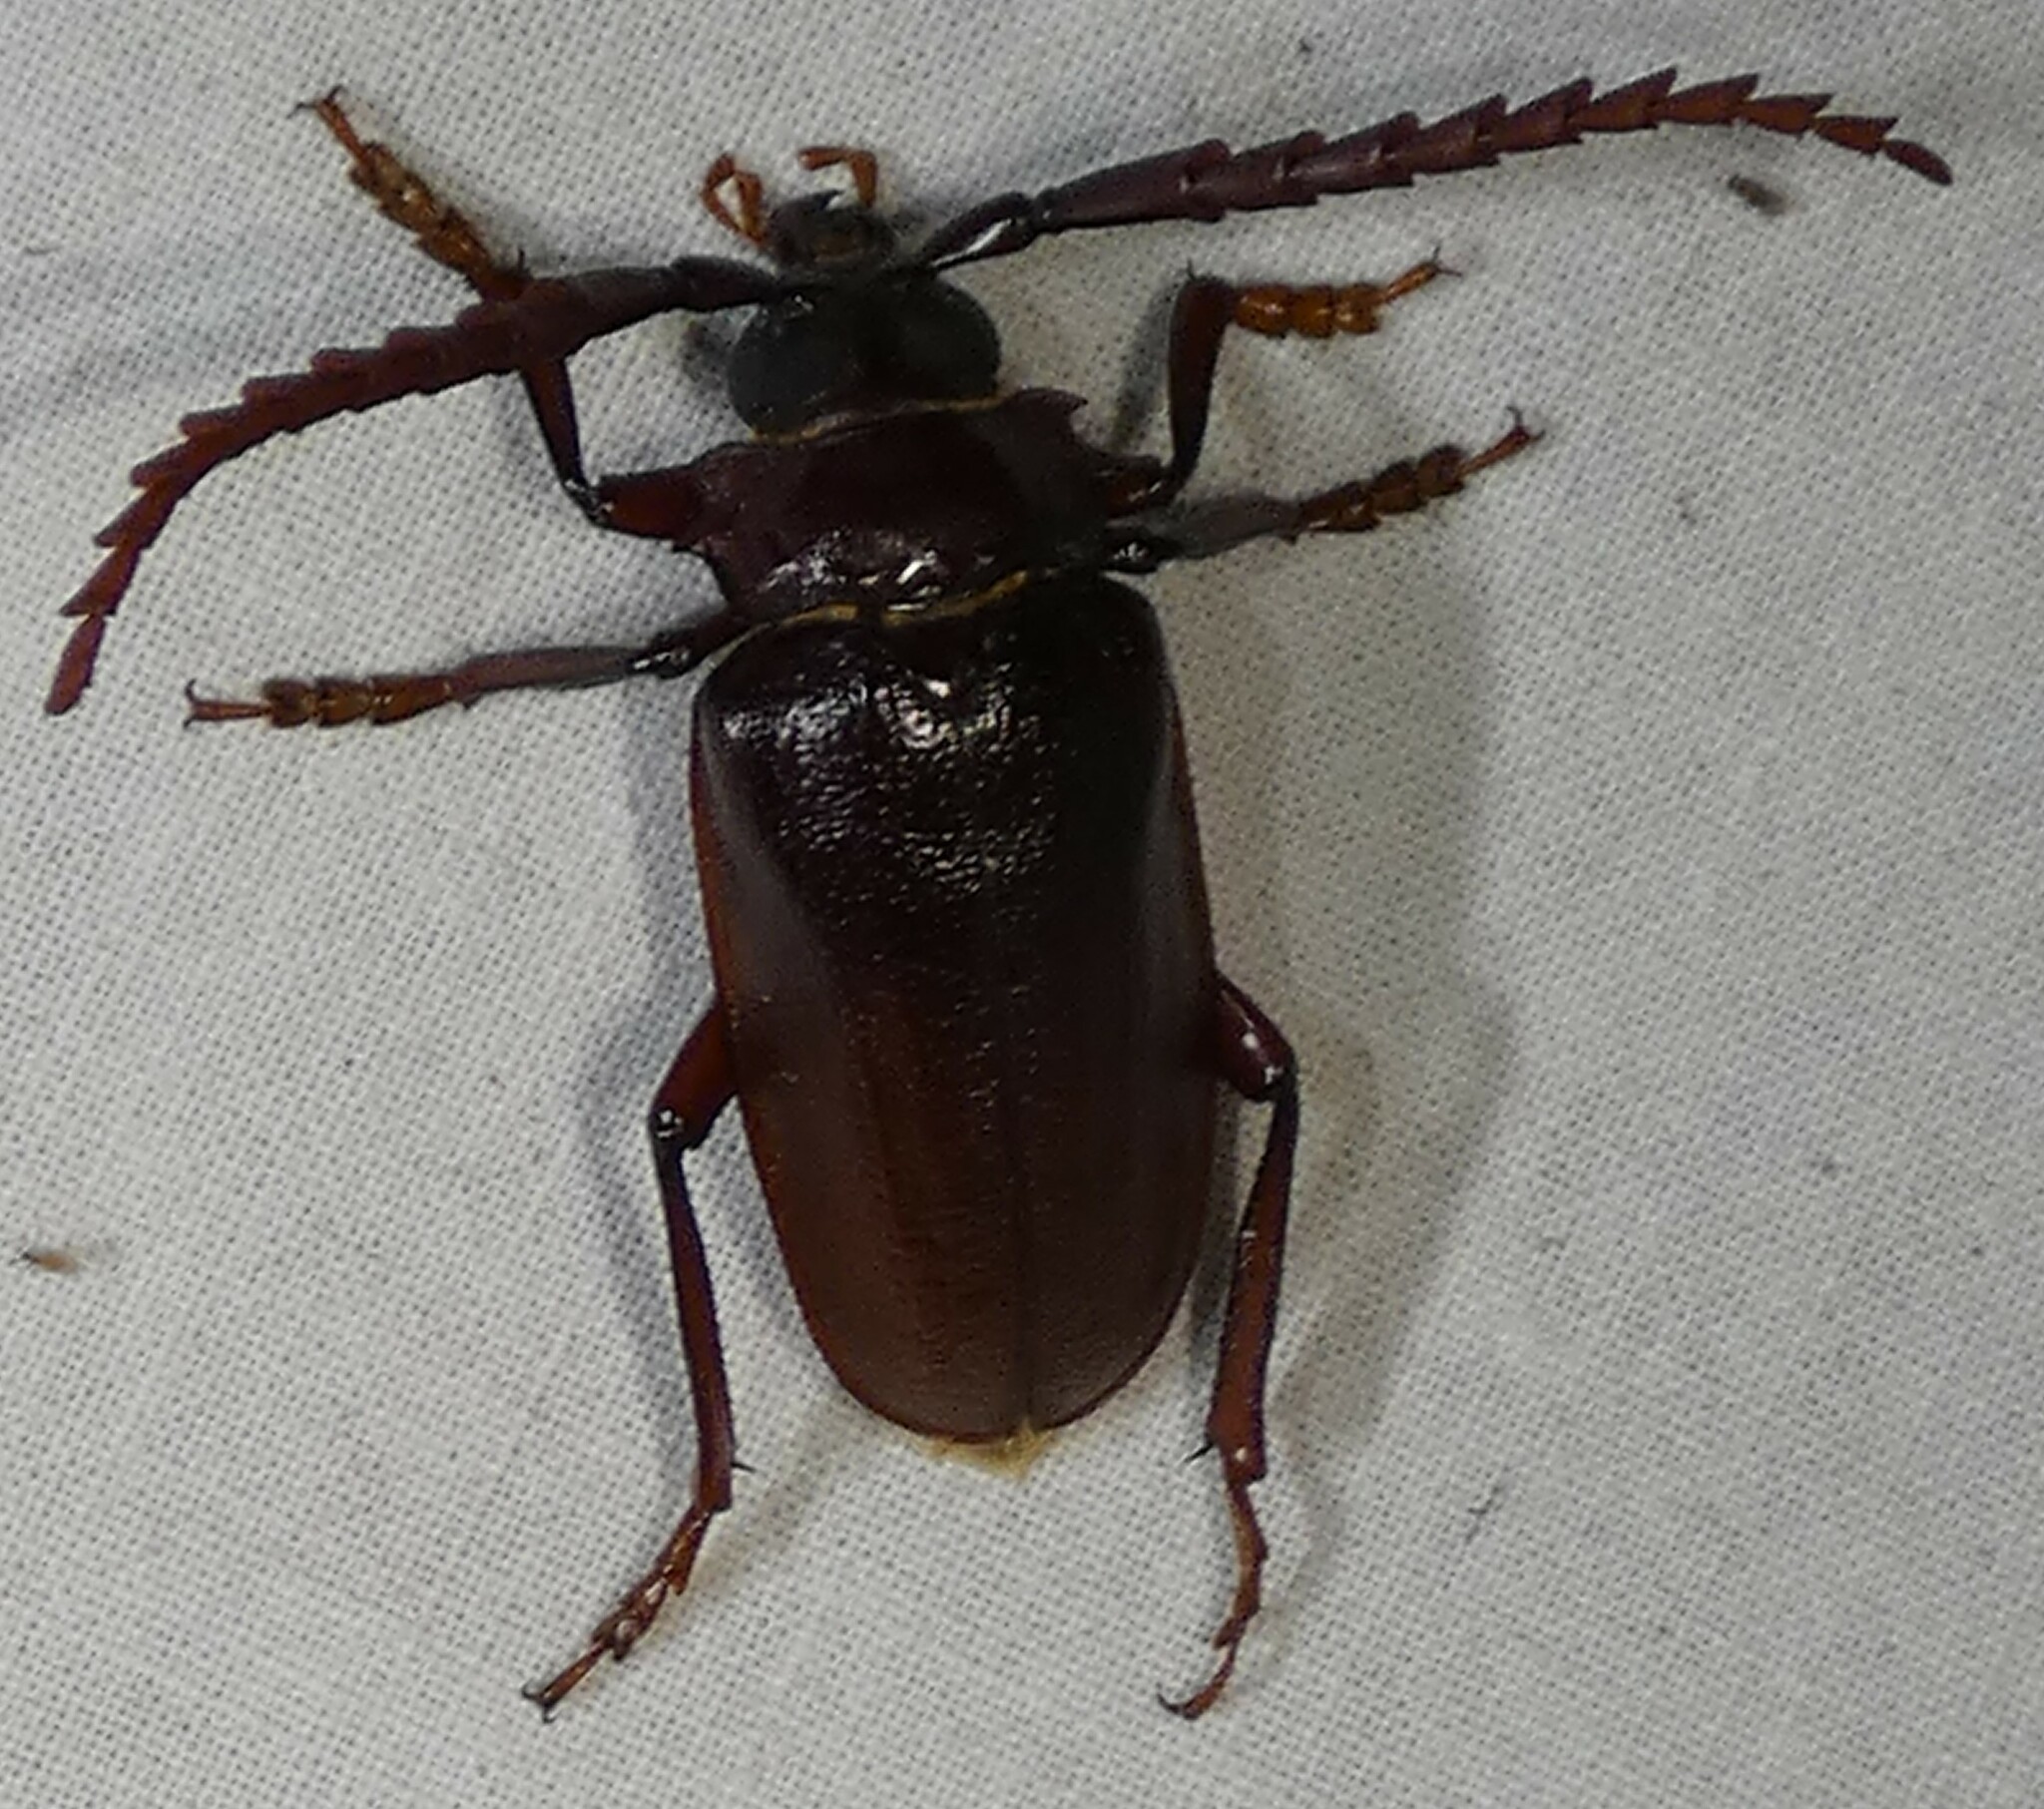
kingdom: Animalia
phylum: Arthropoda
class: Insecta
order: Coleoptera
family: Cerambycidae
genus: Prionus
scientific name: Prionus pocularis
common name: Tooth-necked longhorn beetle
